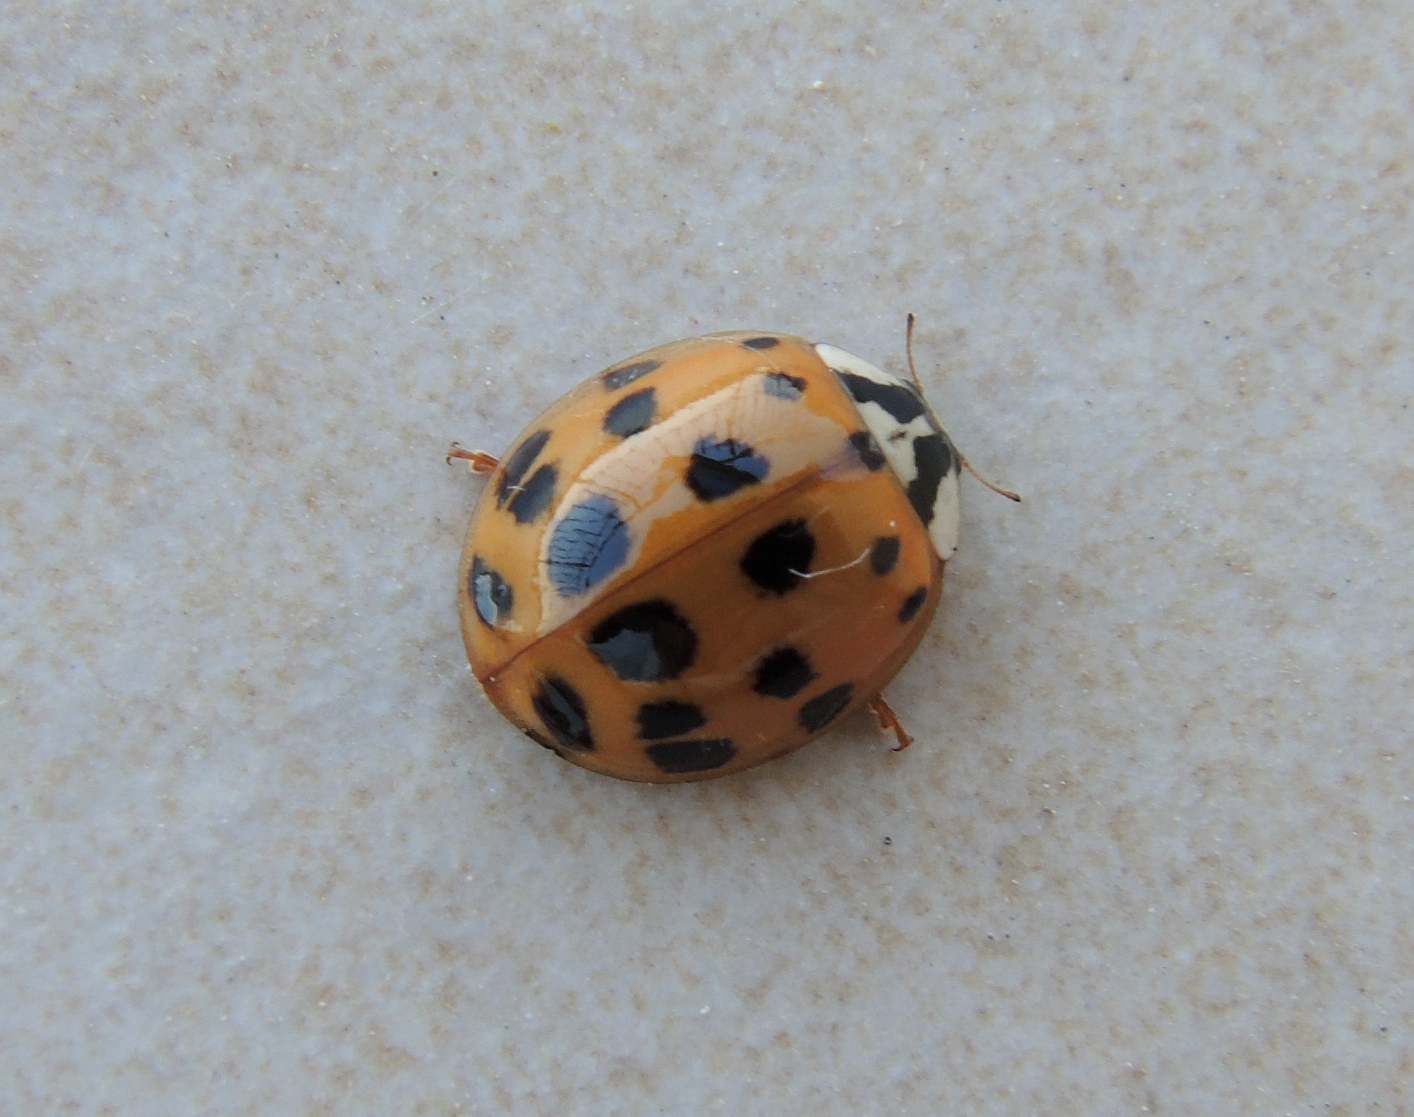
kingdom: Animalia
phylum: Arthropoda
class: Insecta
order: Coleoptera
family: Coccinellidae
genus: Harmonia
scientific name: Harmonia axyridis
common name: Harlequin ladybird
